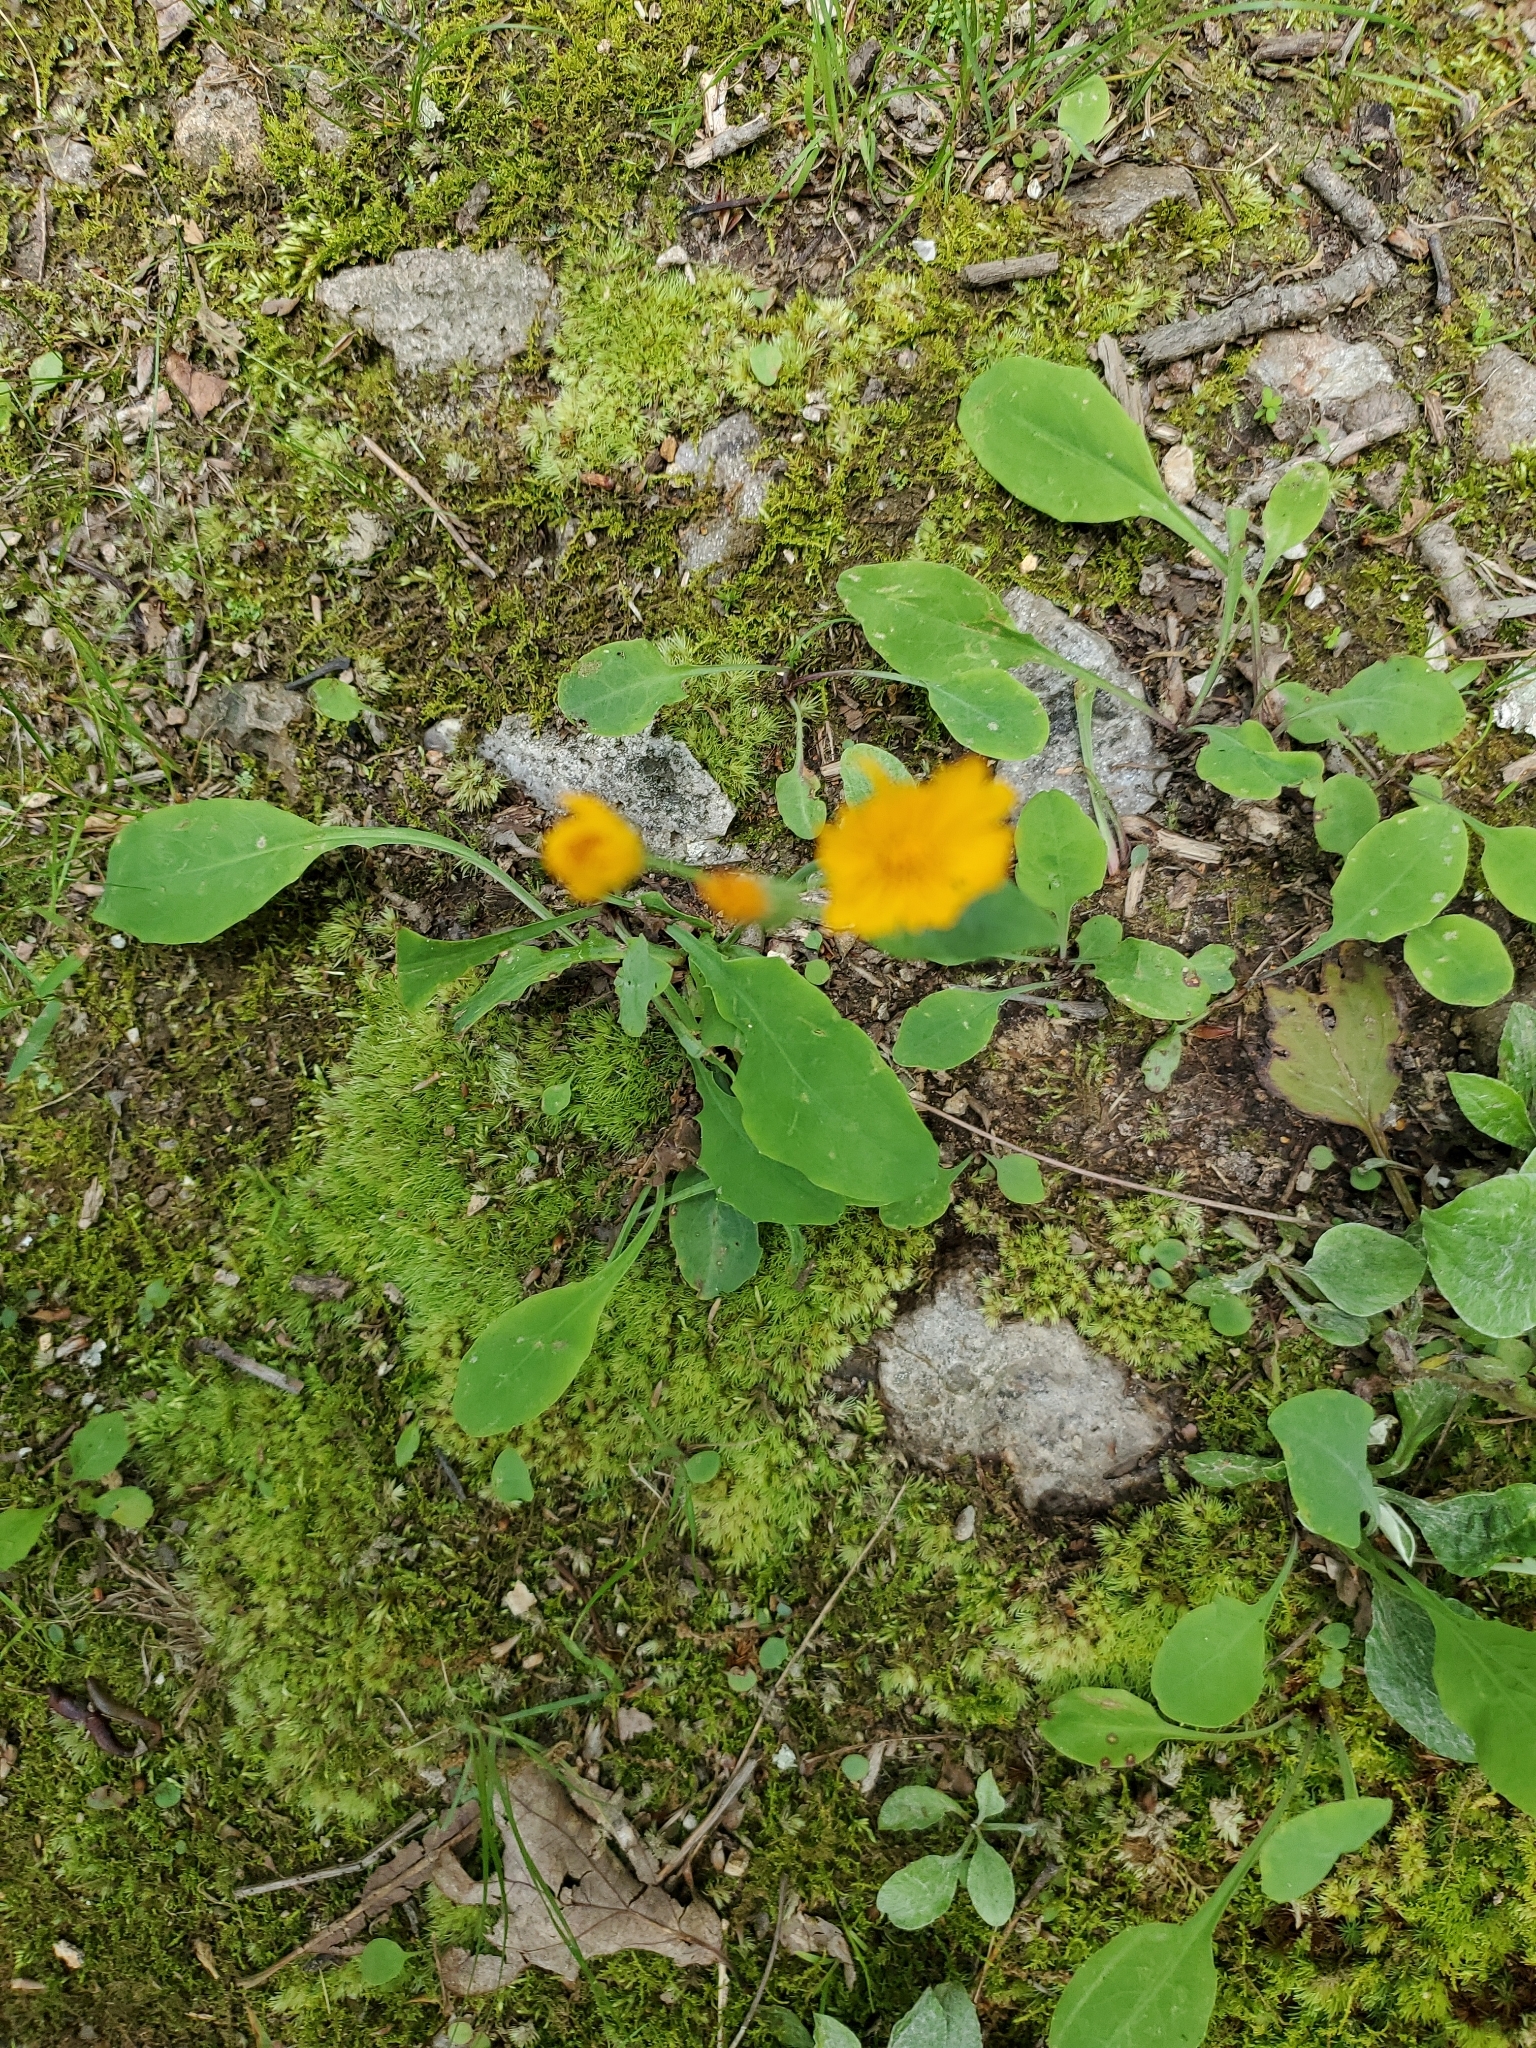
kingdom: Plantae
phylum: Tracheophyta
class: Magnoliopsida
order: Asterales
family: Asteraceae
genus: Krigia
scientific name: Krigia biflora
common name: Orange dwarf-dandelion
